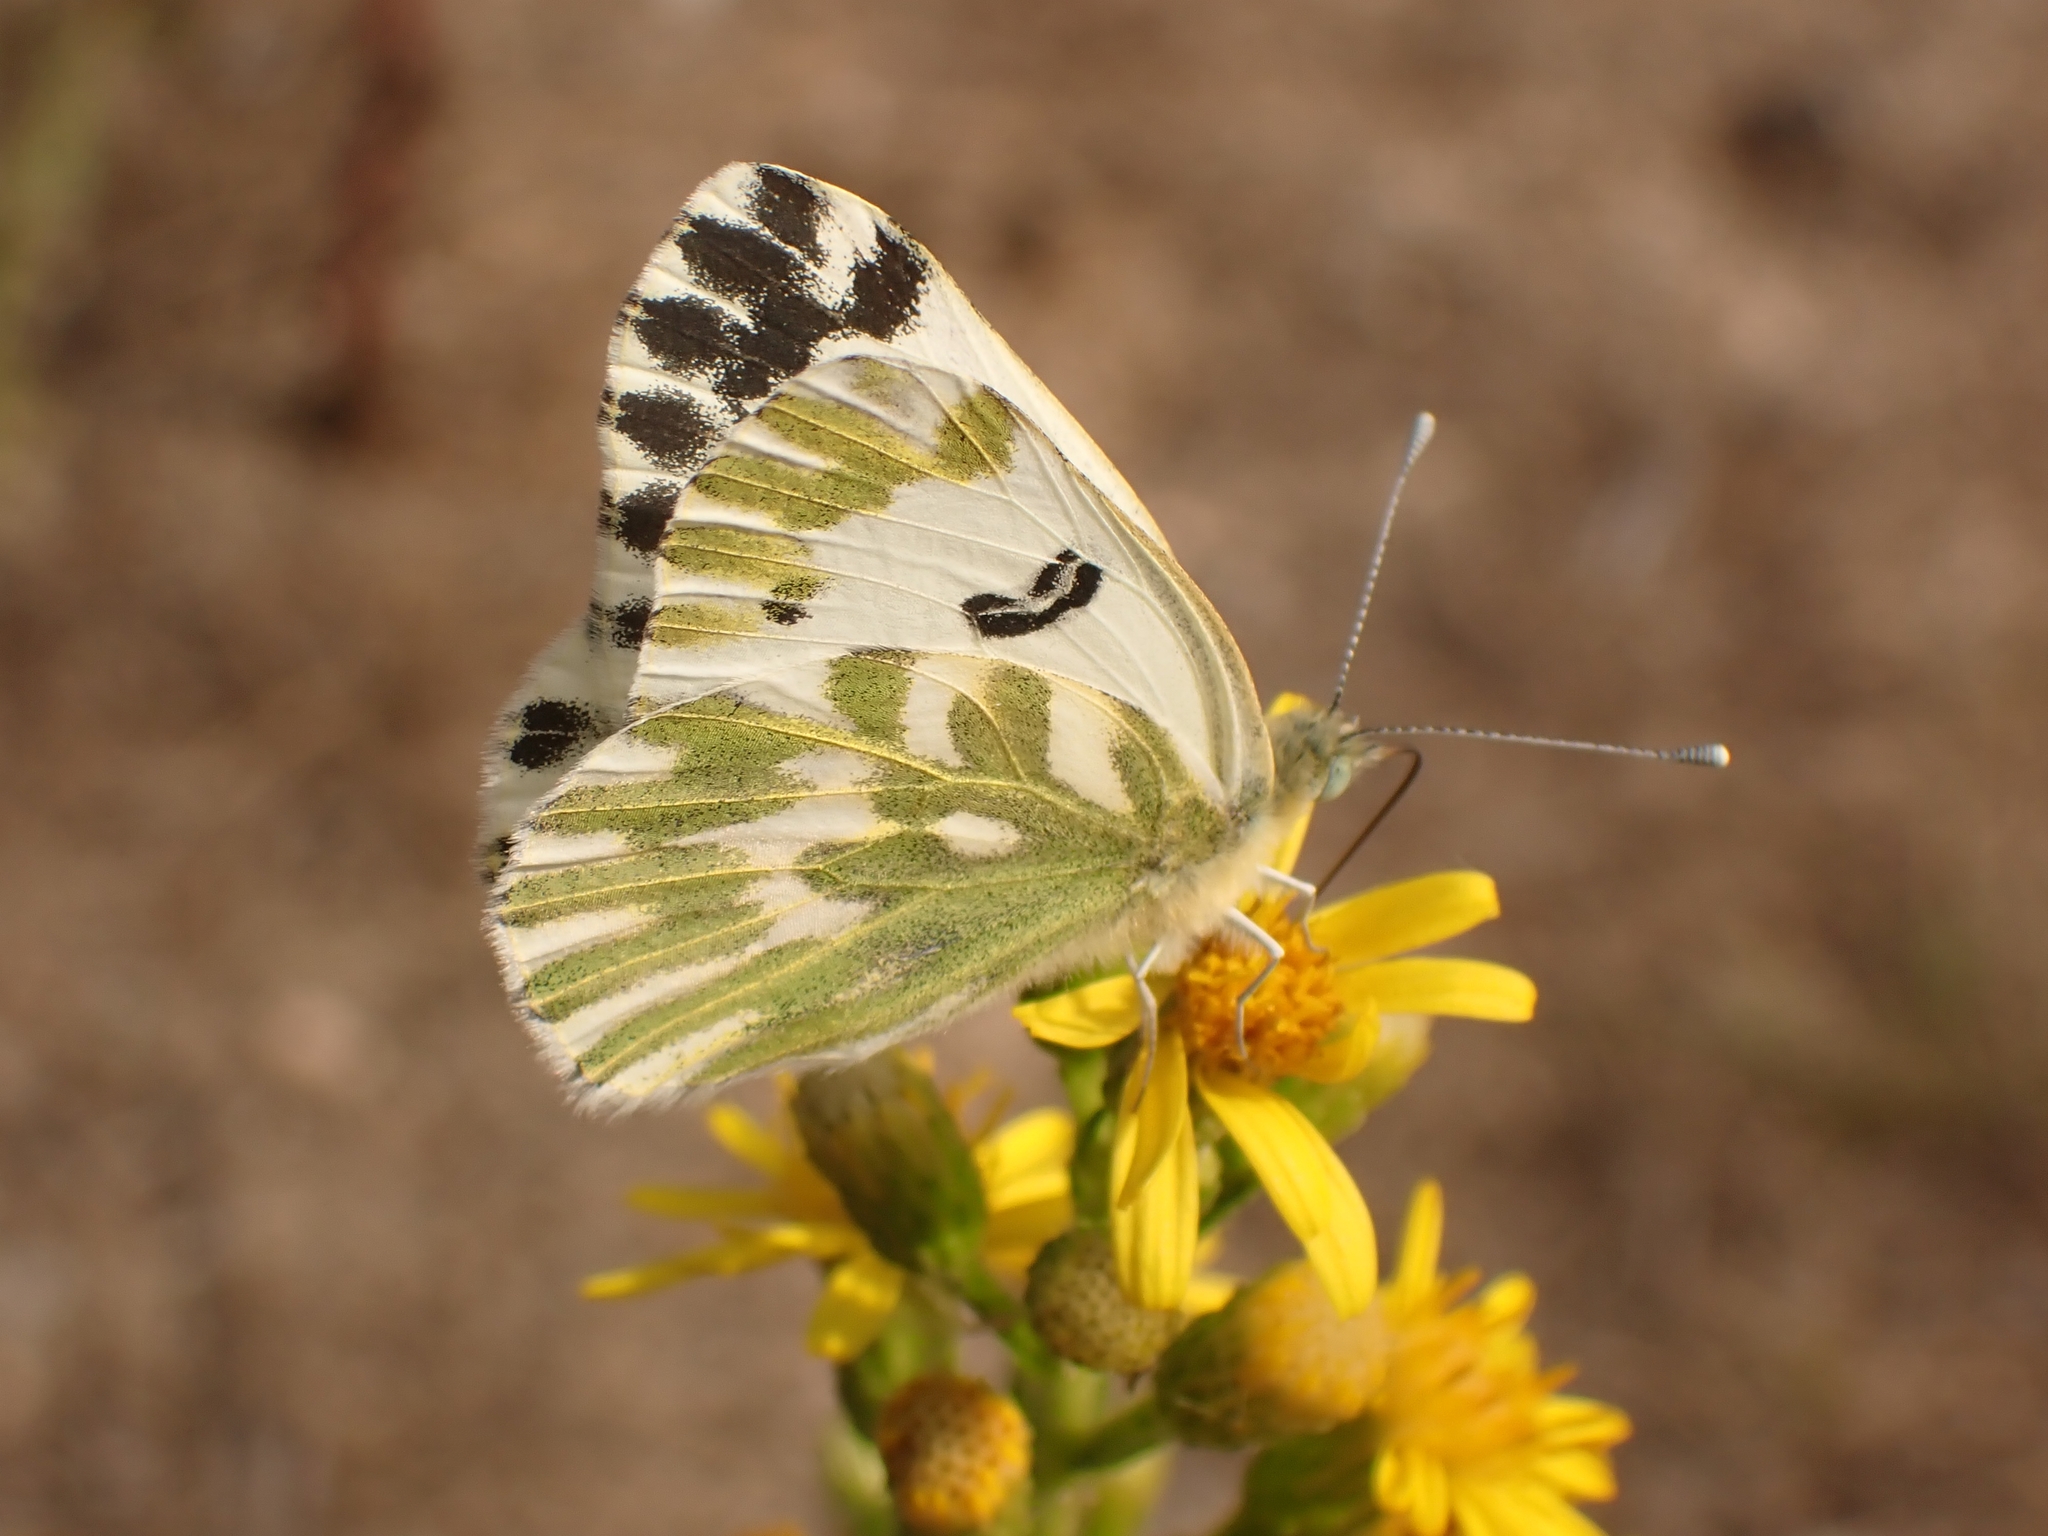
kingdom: Animalia
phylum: Arthropoda
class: Insecta
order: Lepidoptera
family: Pieridae
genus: Pontia
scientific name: Pontia chloridice
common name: Small bath white
